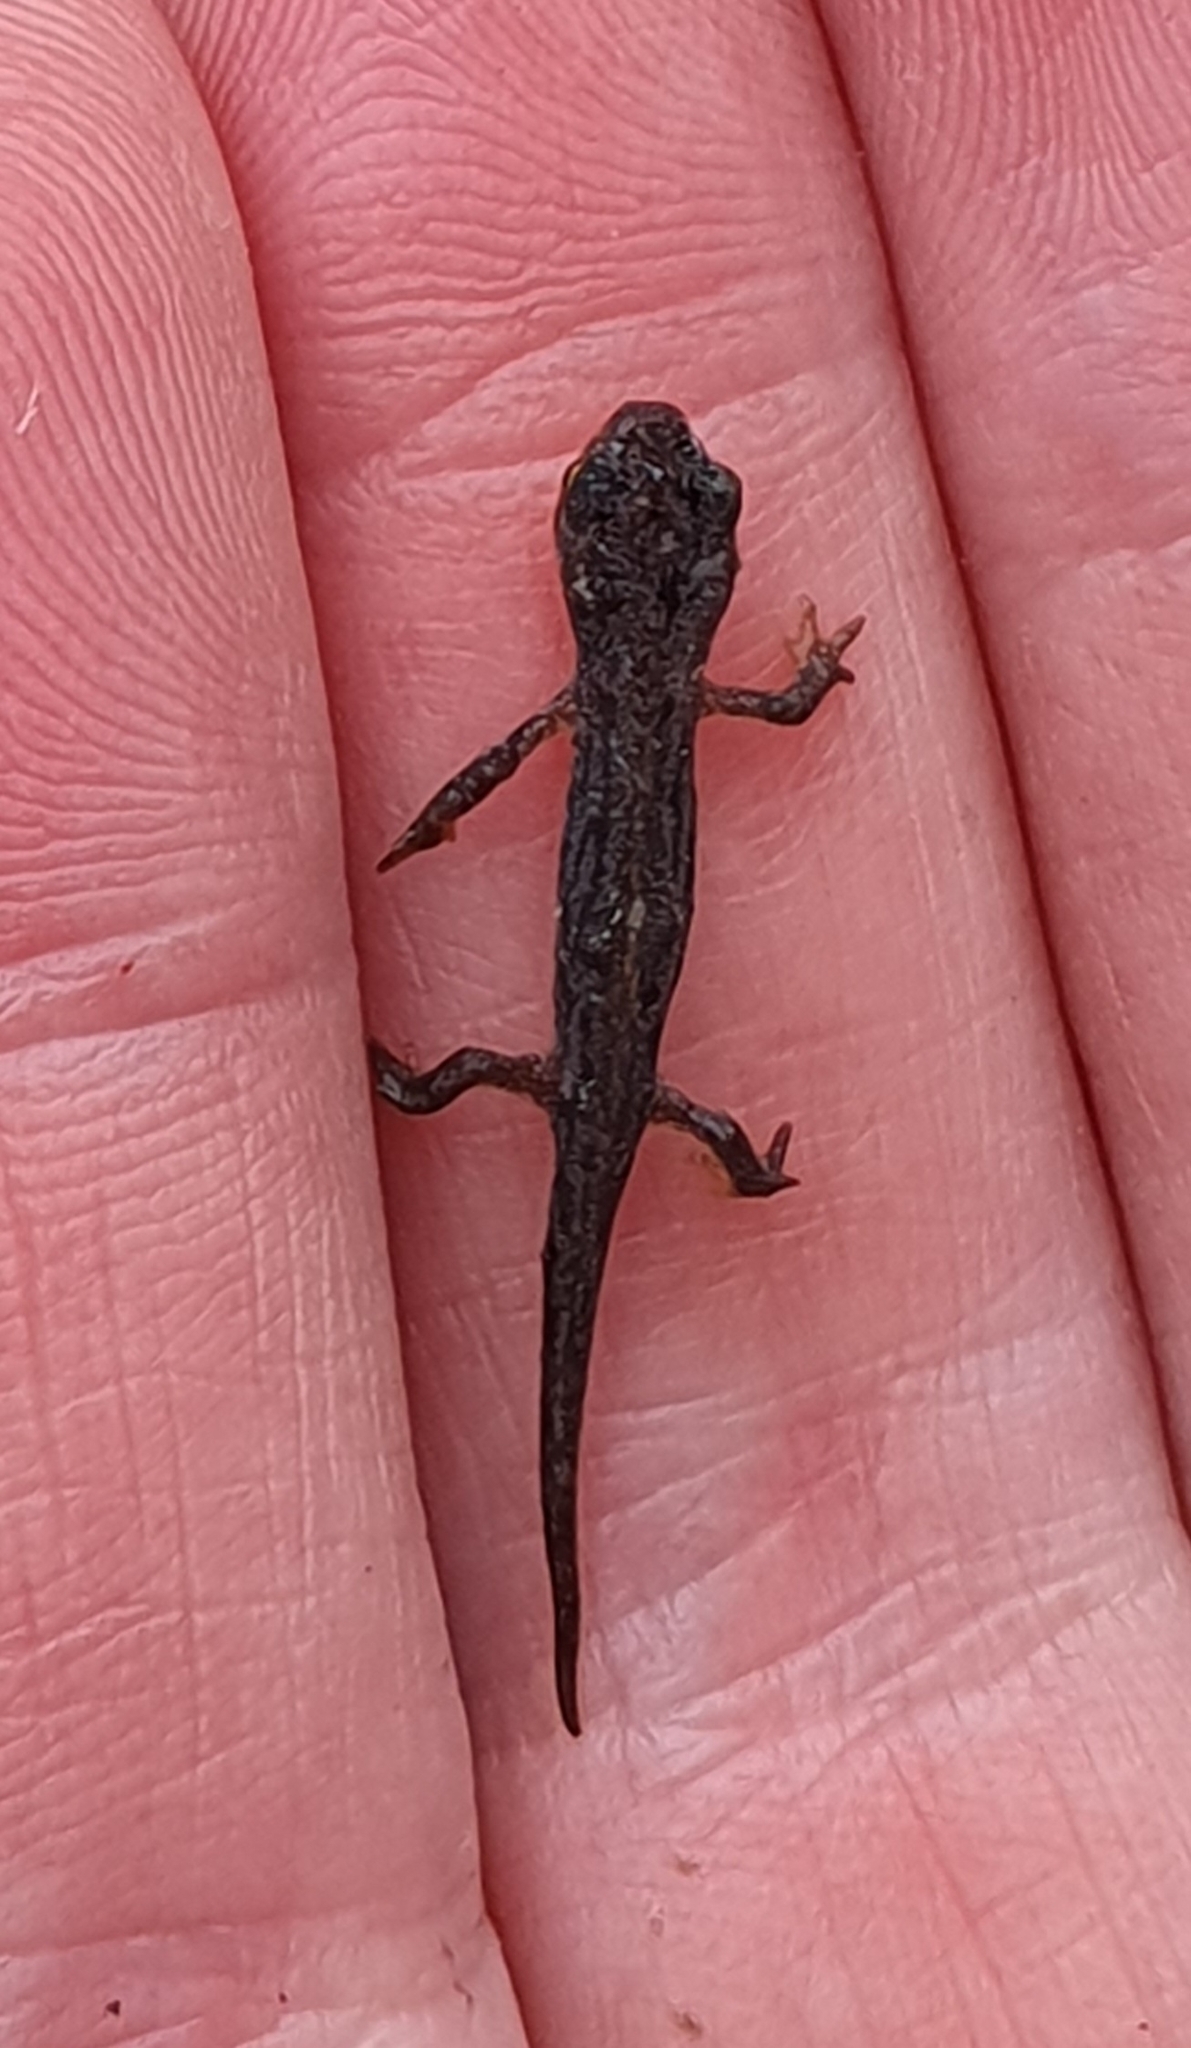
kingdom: Animalia
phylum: Chordata
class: Amphibia
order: Caudata
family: Salamandridae
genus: Lissotriton
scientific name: Lissotriton boscai
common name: Bosca's newt
